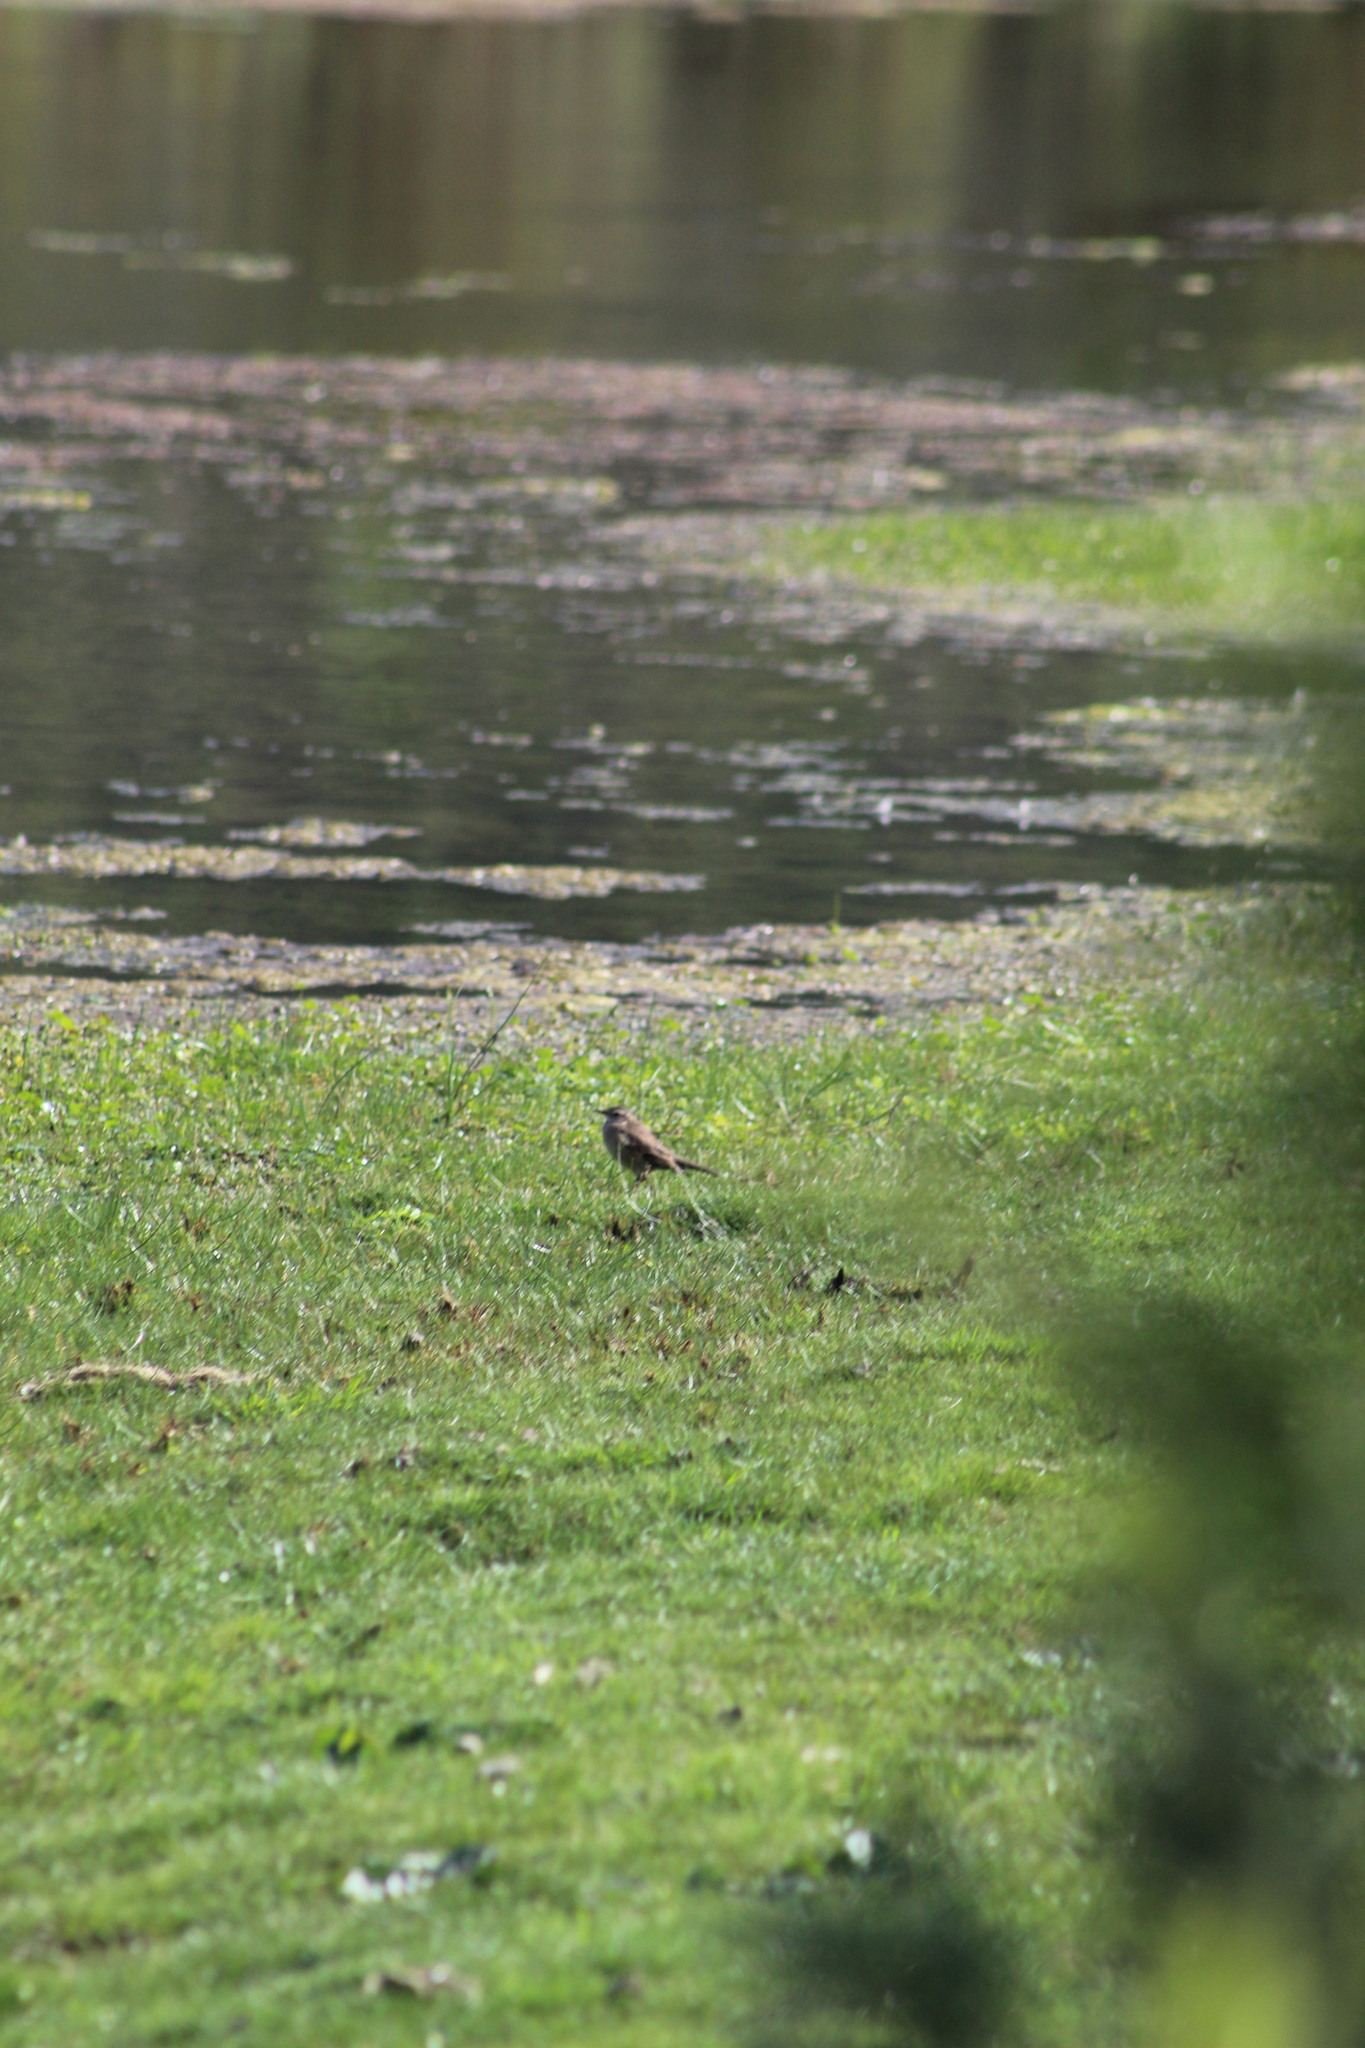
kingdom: Animalia
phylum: Chordata
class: Aves
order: Passeriformes
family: Furnariidae
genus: Cinclodes
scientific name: Cinclodes fuscus
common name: Buff-winged cinclodes
